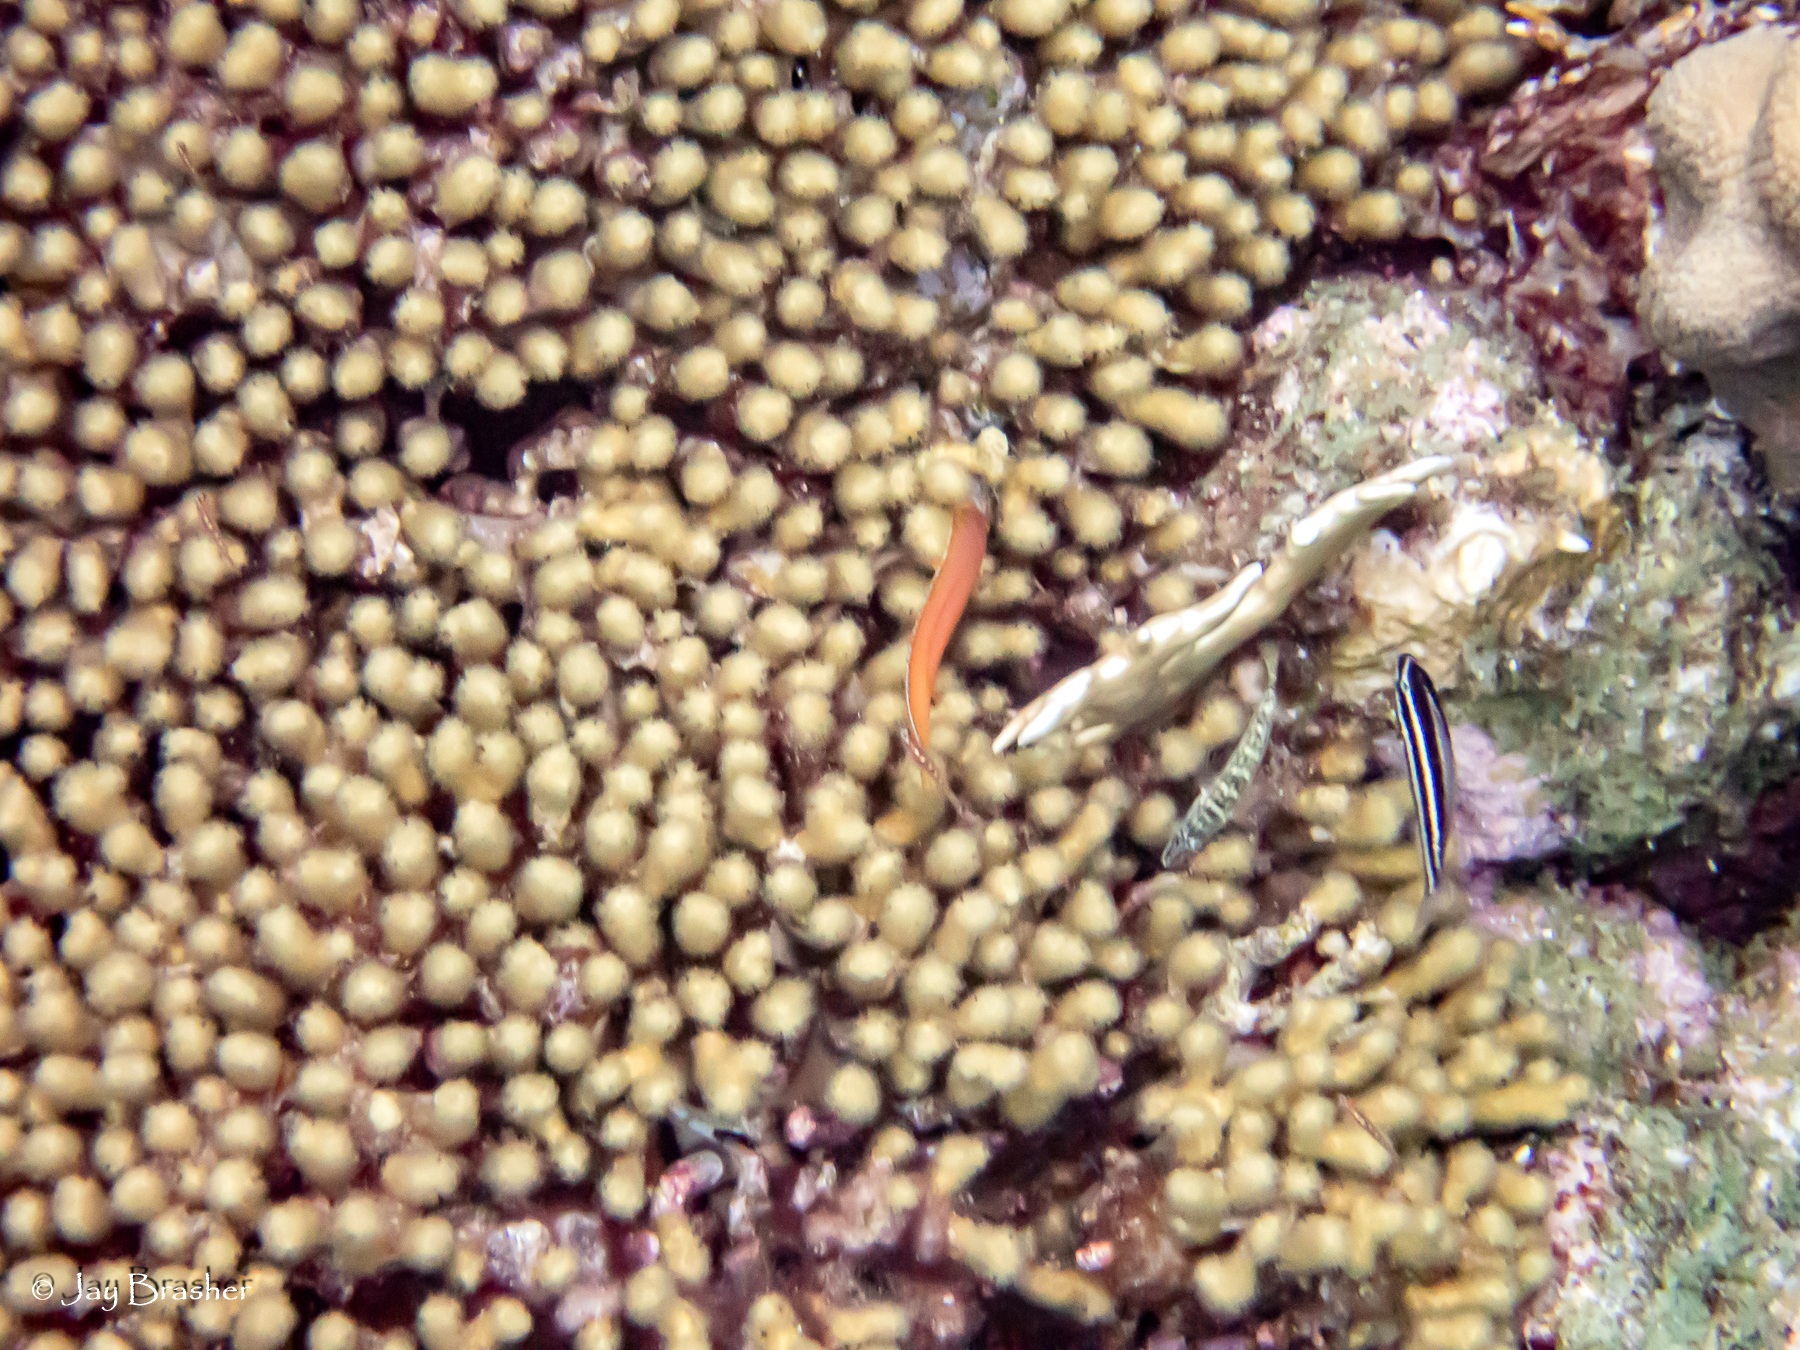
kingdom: Animalia
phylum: Cnidaria
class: Anthozoa
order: Scleractinia
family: Pocilloporidae
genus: Madracis
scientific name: Madracis auretenra
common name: Yellow pencil coral
